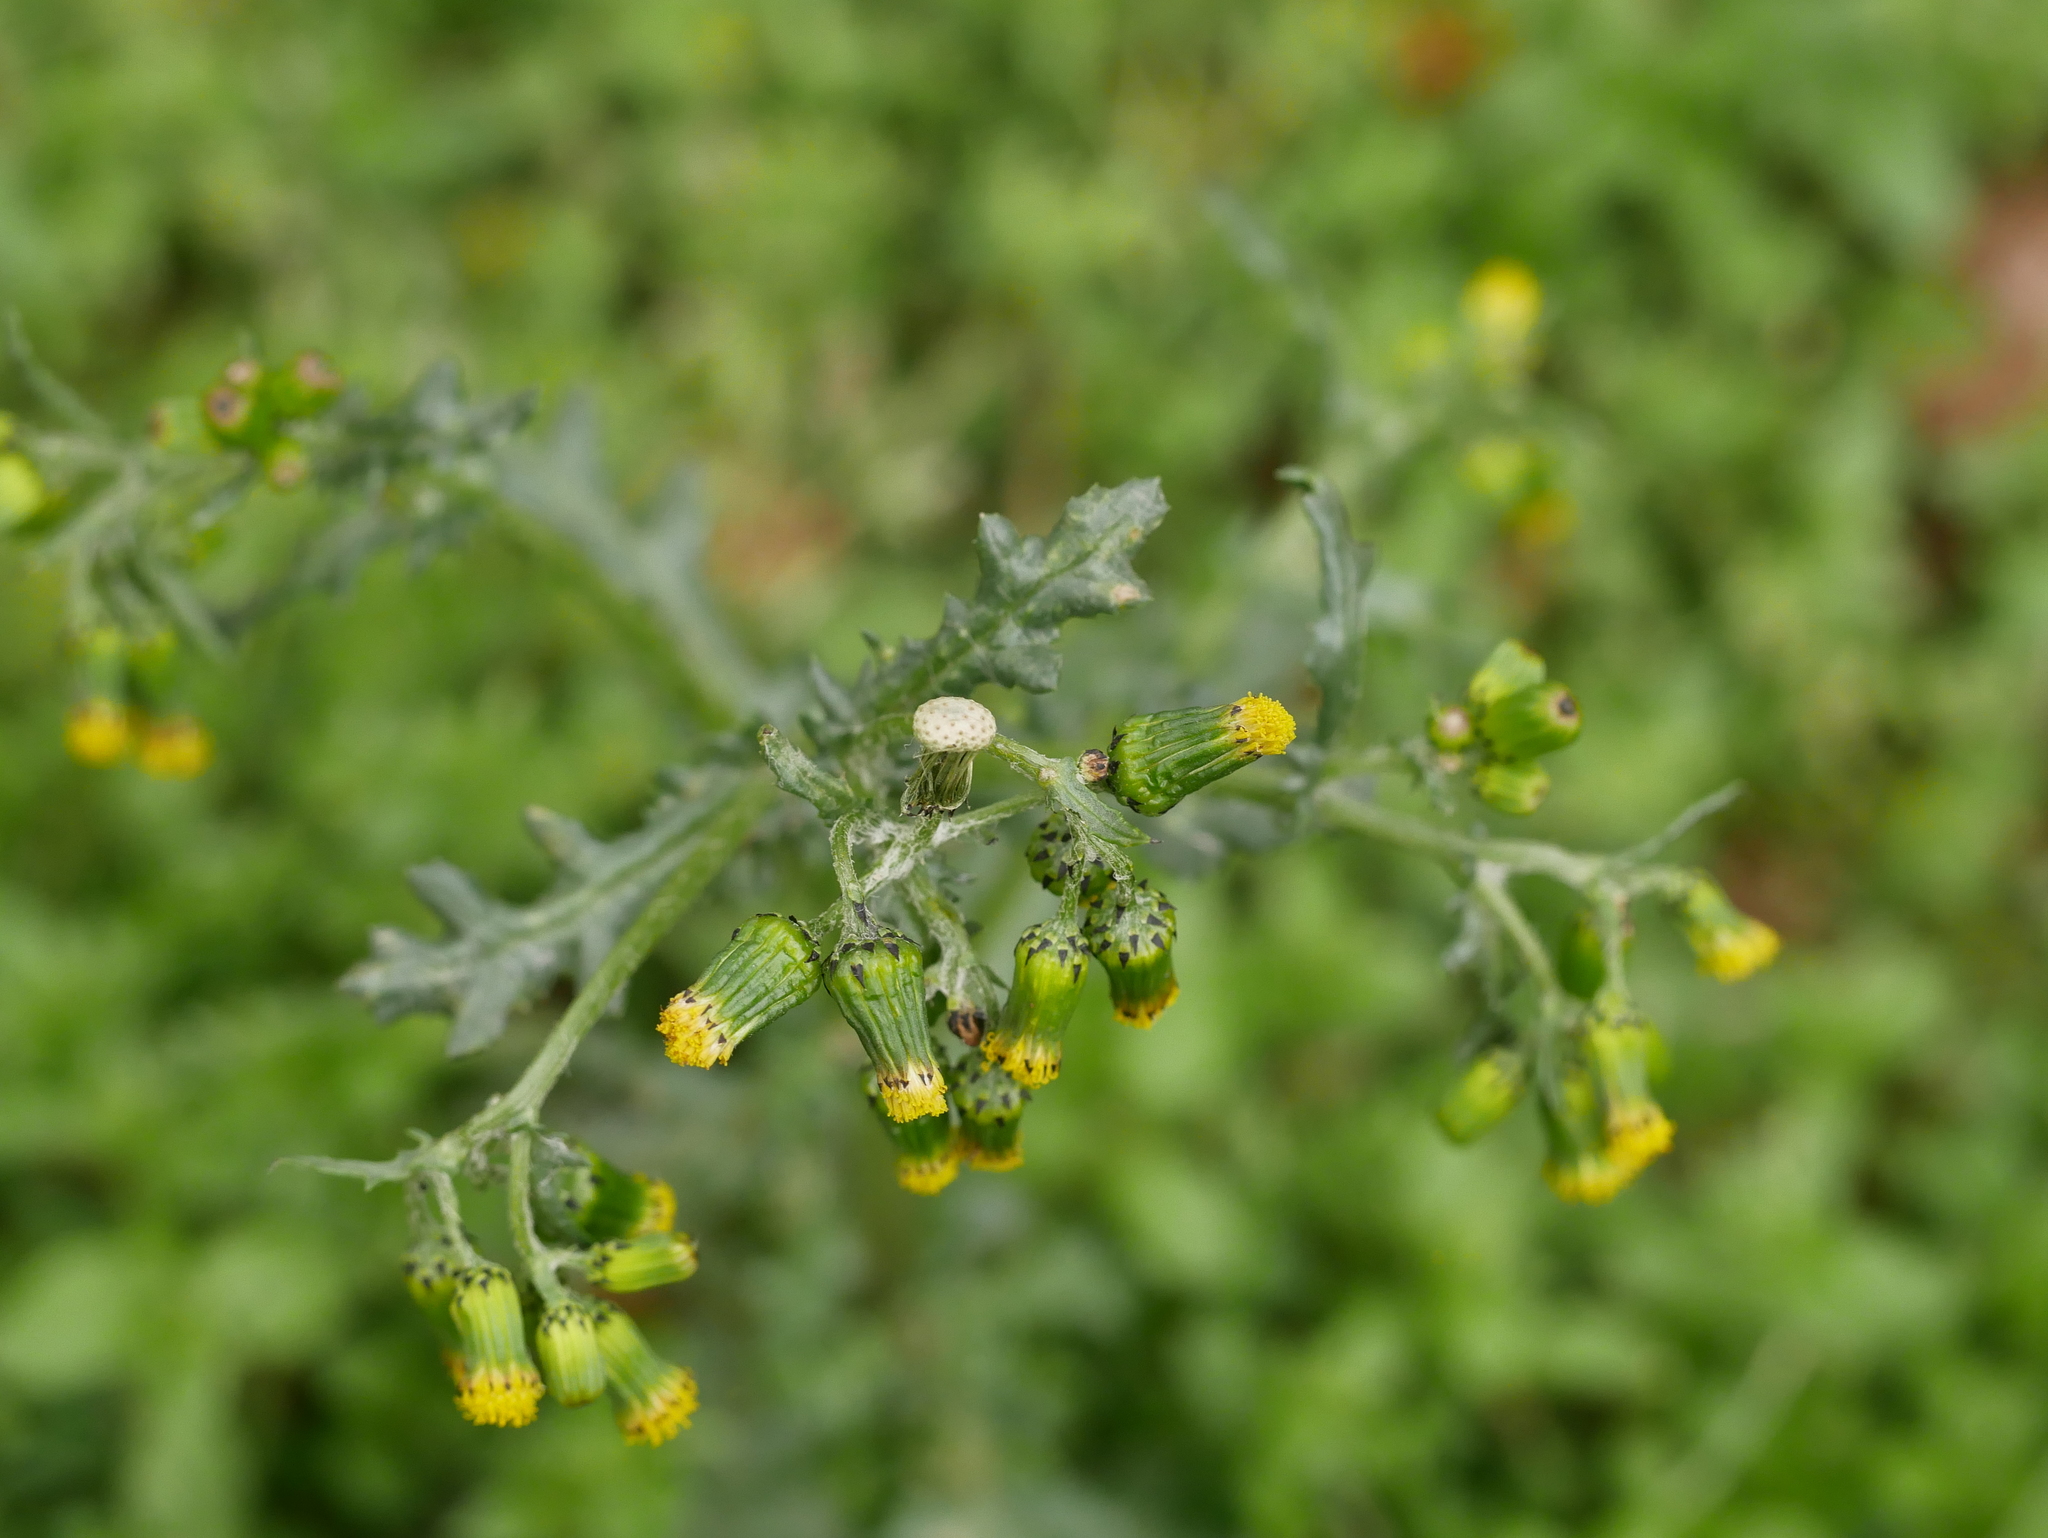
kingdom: Plantae
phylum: Tracheophyta
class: Magnoliopsida
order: Asterales
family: Asteraceae
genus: Senecio
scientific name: Senecio vulgaris
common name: Old-man-in-the-spring
